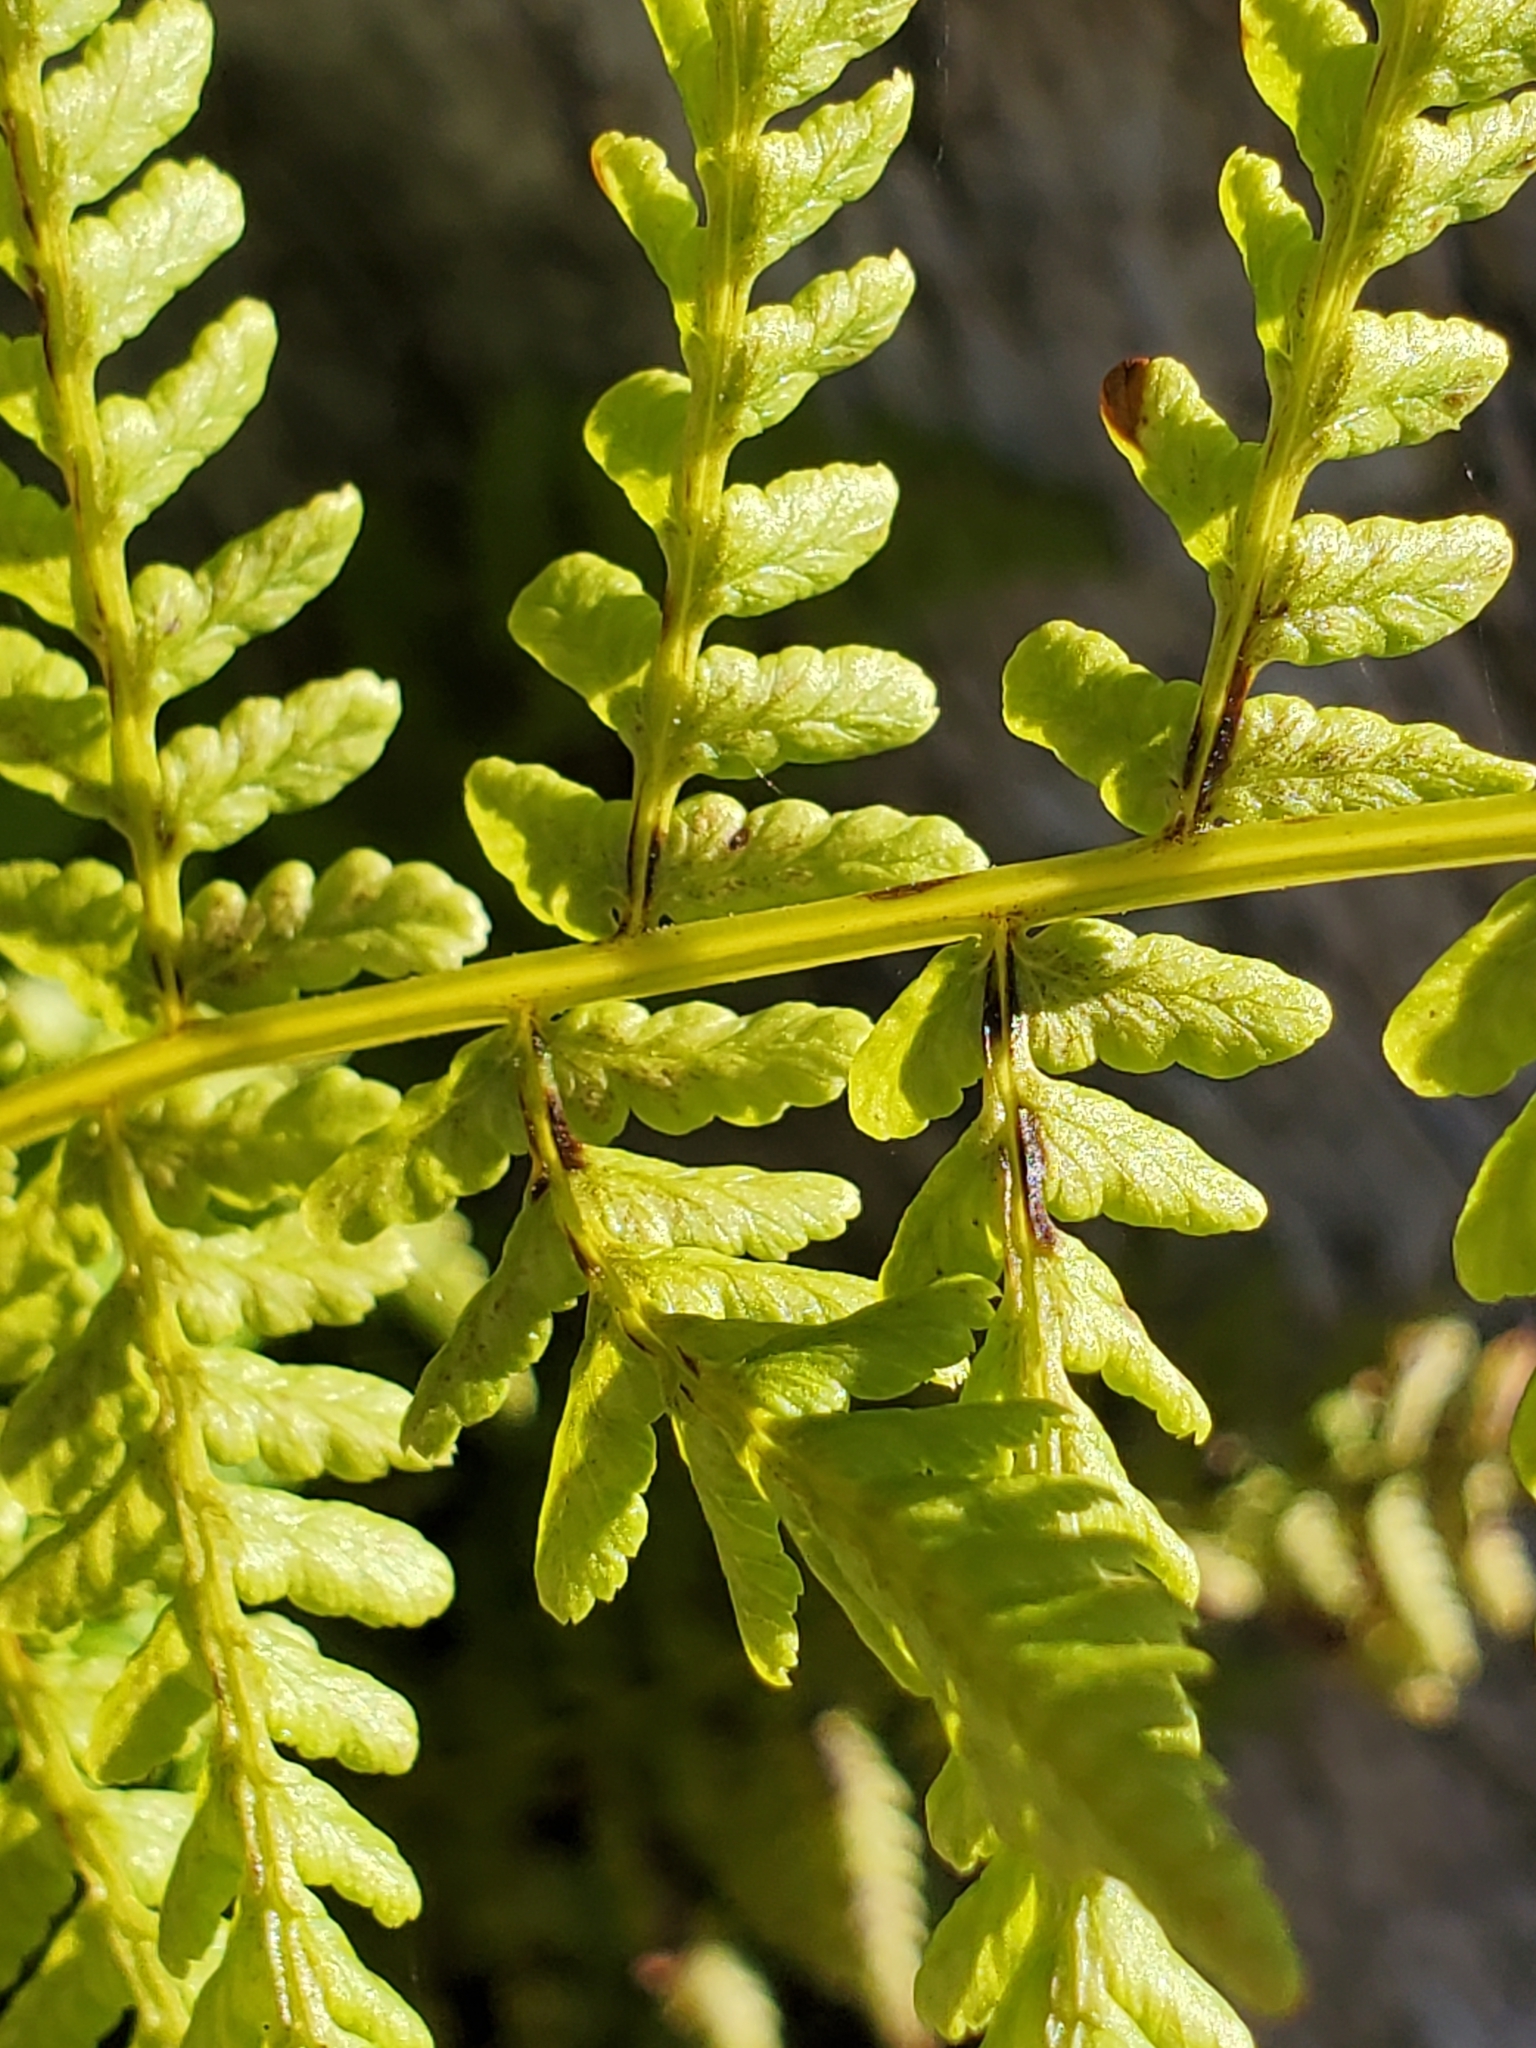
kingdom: Plantae
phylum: Tracheophyta
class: Polypodiopsida
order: Polypodiales
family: Athyriaceae
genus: Athyrium
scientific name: Athyrium filix-femina
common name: Lady fern
